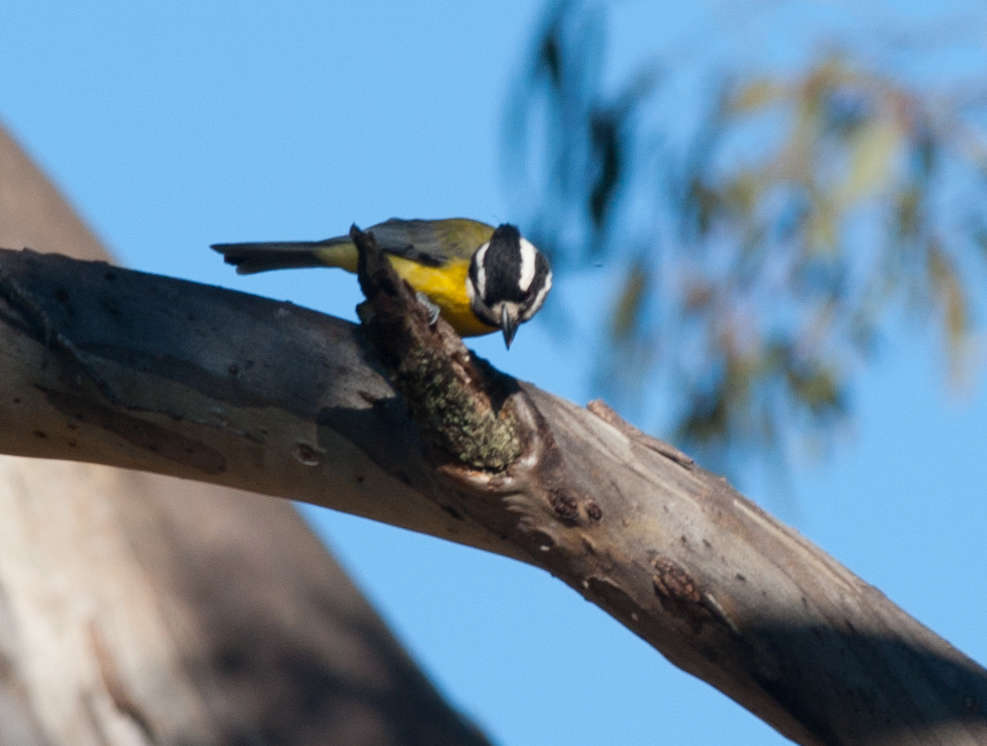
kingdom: Animalia
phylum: Chordata
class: Aves
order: Passeriformes
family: Pachycephalidae
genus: Falcunculus
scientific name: Falcunculus frontatus
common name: Crested shriketit
